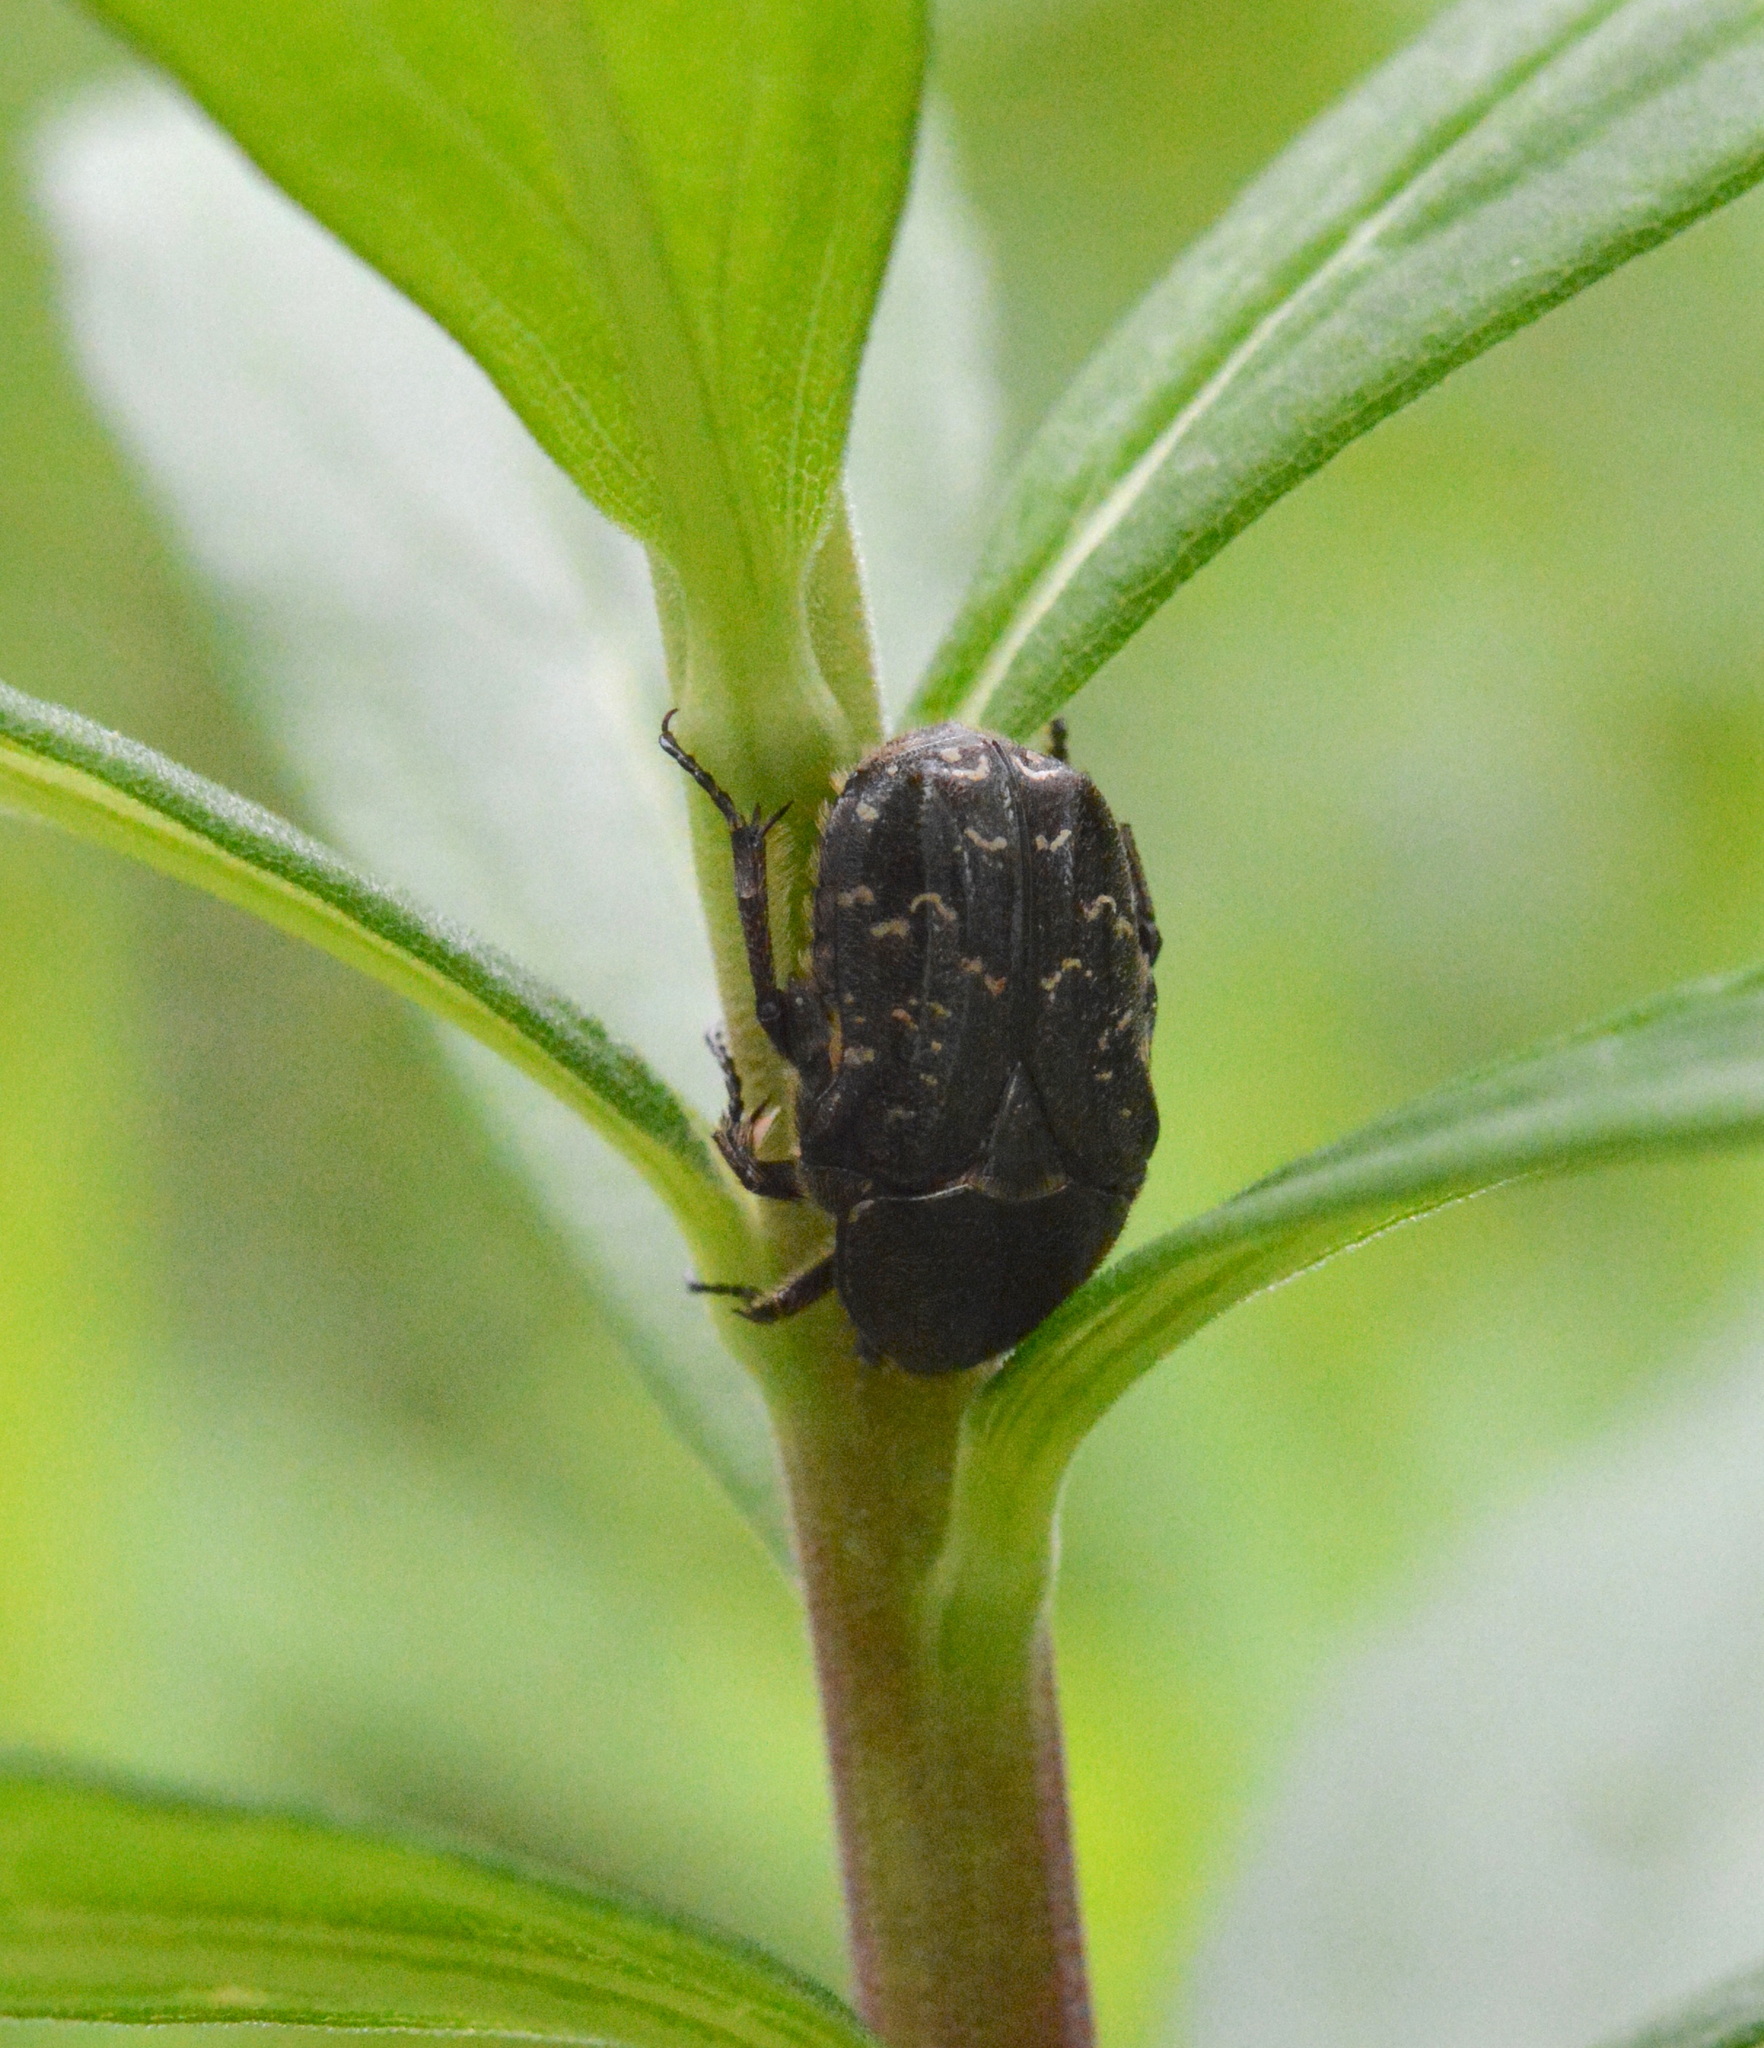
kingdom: Animalia
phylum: Arthropoda
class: Insecta
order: Coleoptera
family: Scarabaeidae
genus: Euphoria
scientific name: Euphoria sepulcralis
